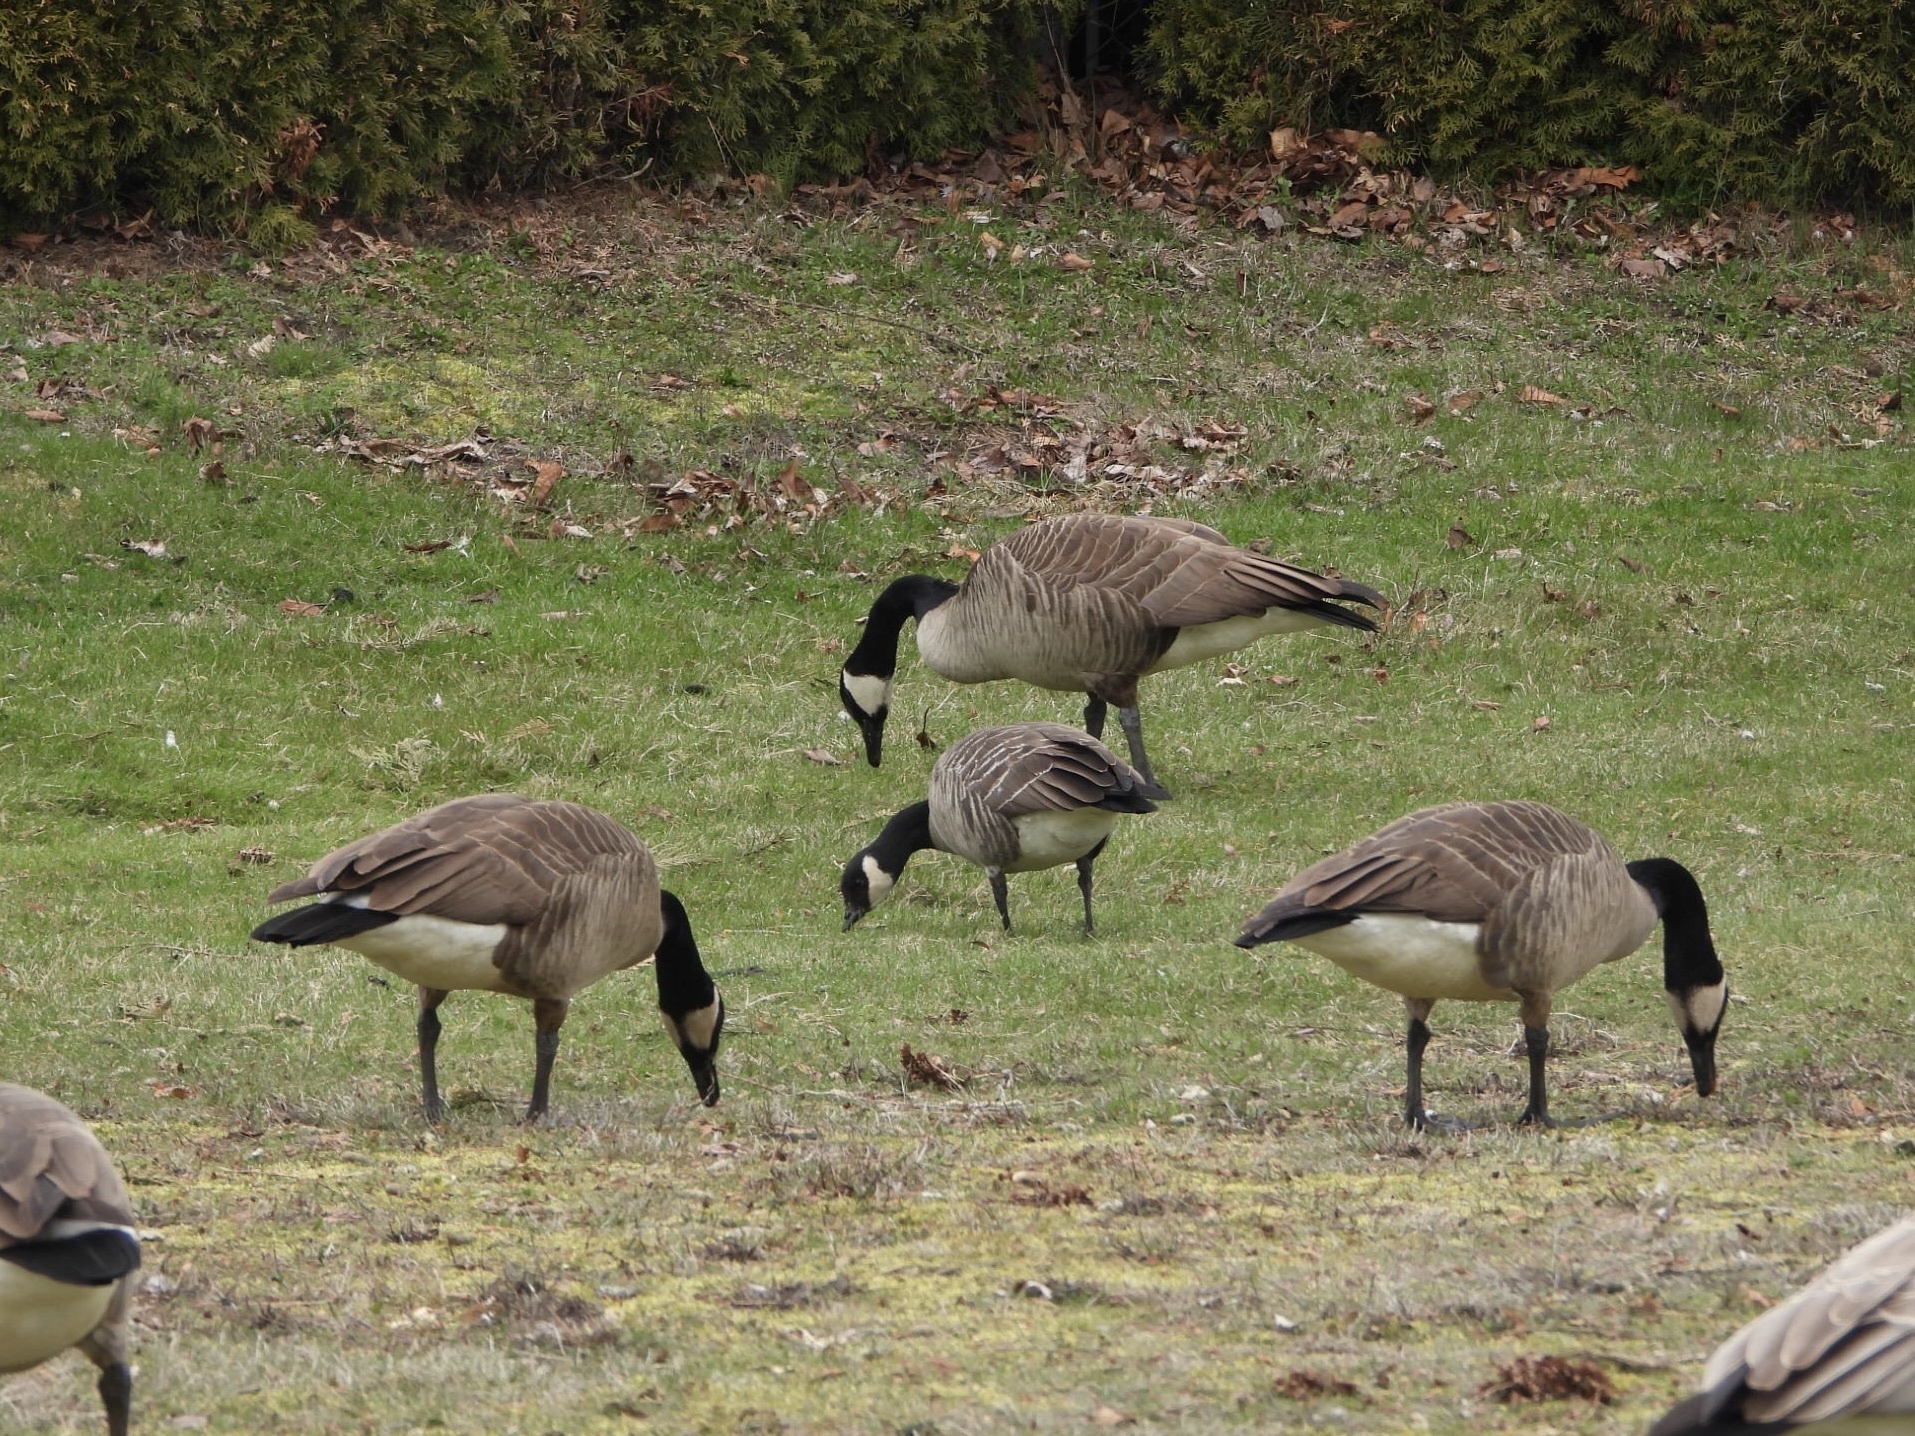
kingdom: Animalia
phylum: Chordata
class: Aves
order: Anseriformes
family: Anatidae
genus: Branta
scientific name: Branta hutchinsii
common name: Cackling goose
